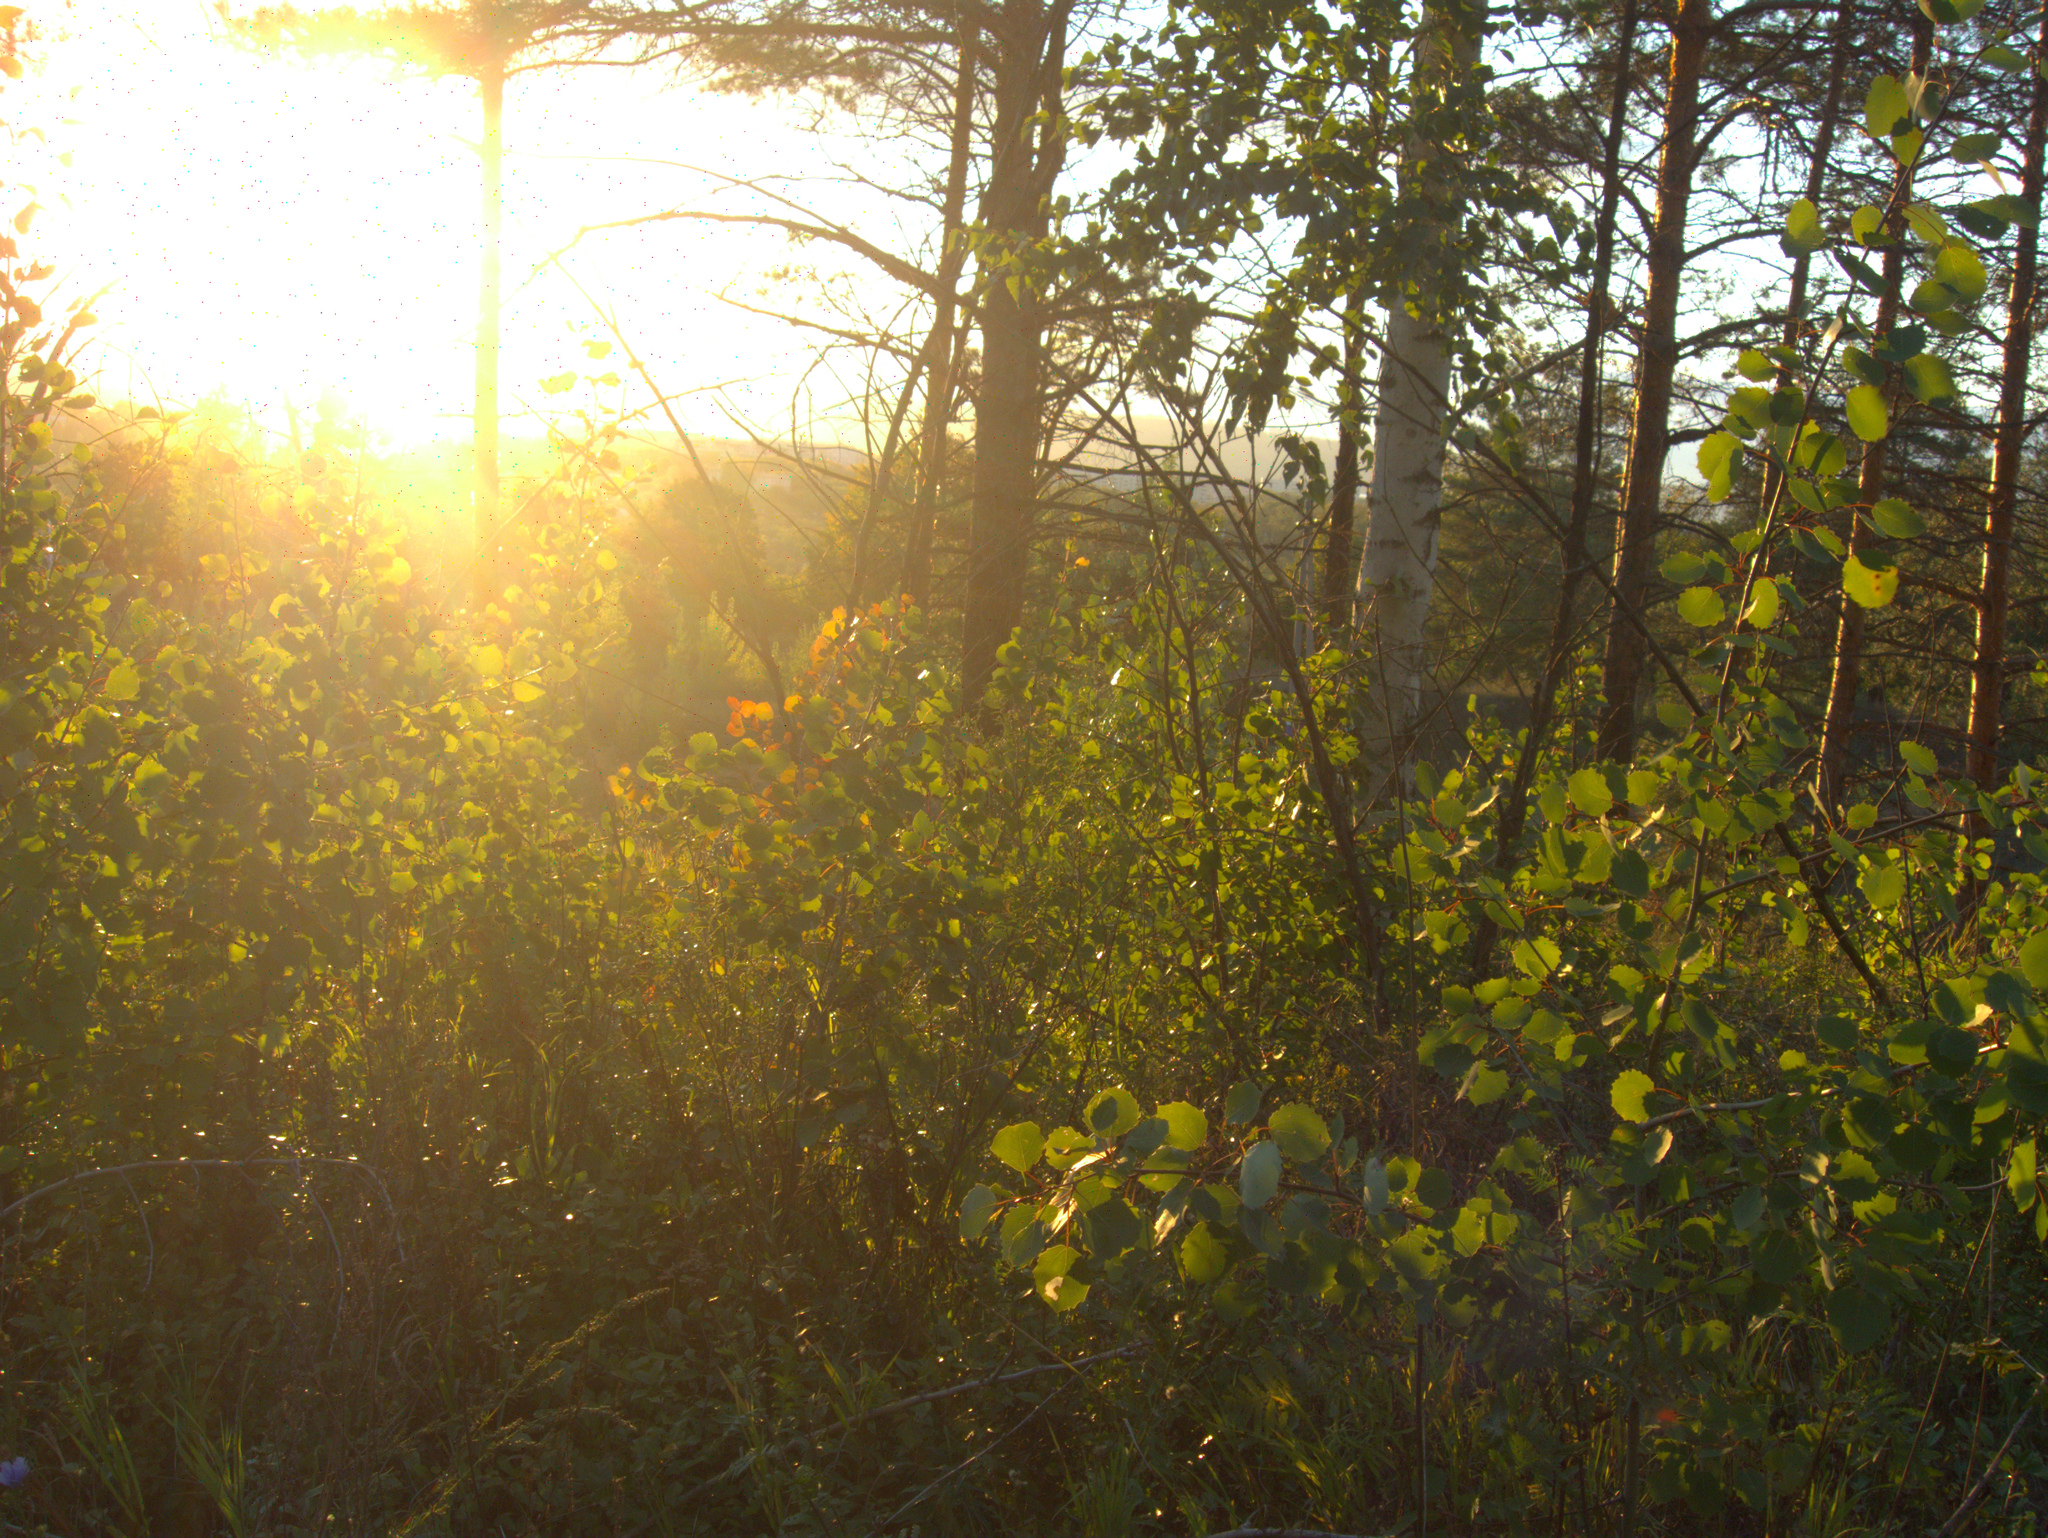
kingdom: Plantae
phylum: Tracheophyta
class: Magnoliopsida
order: Malpighiales
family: Salicaceae
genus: Populus
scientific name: Populus tremula
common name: European aspen
